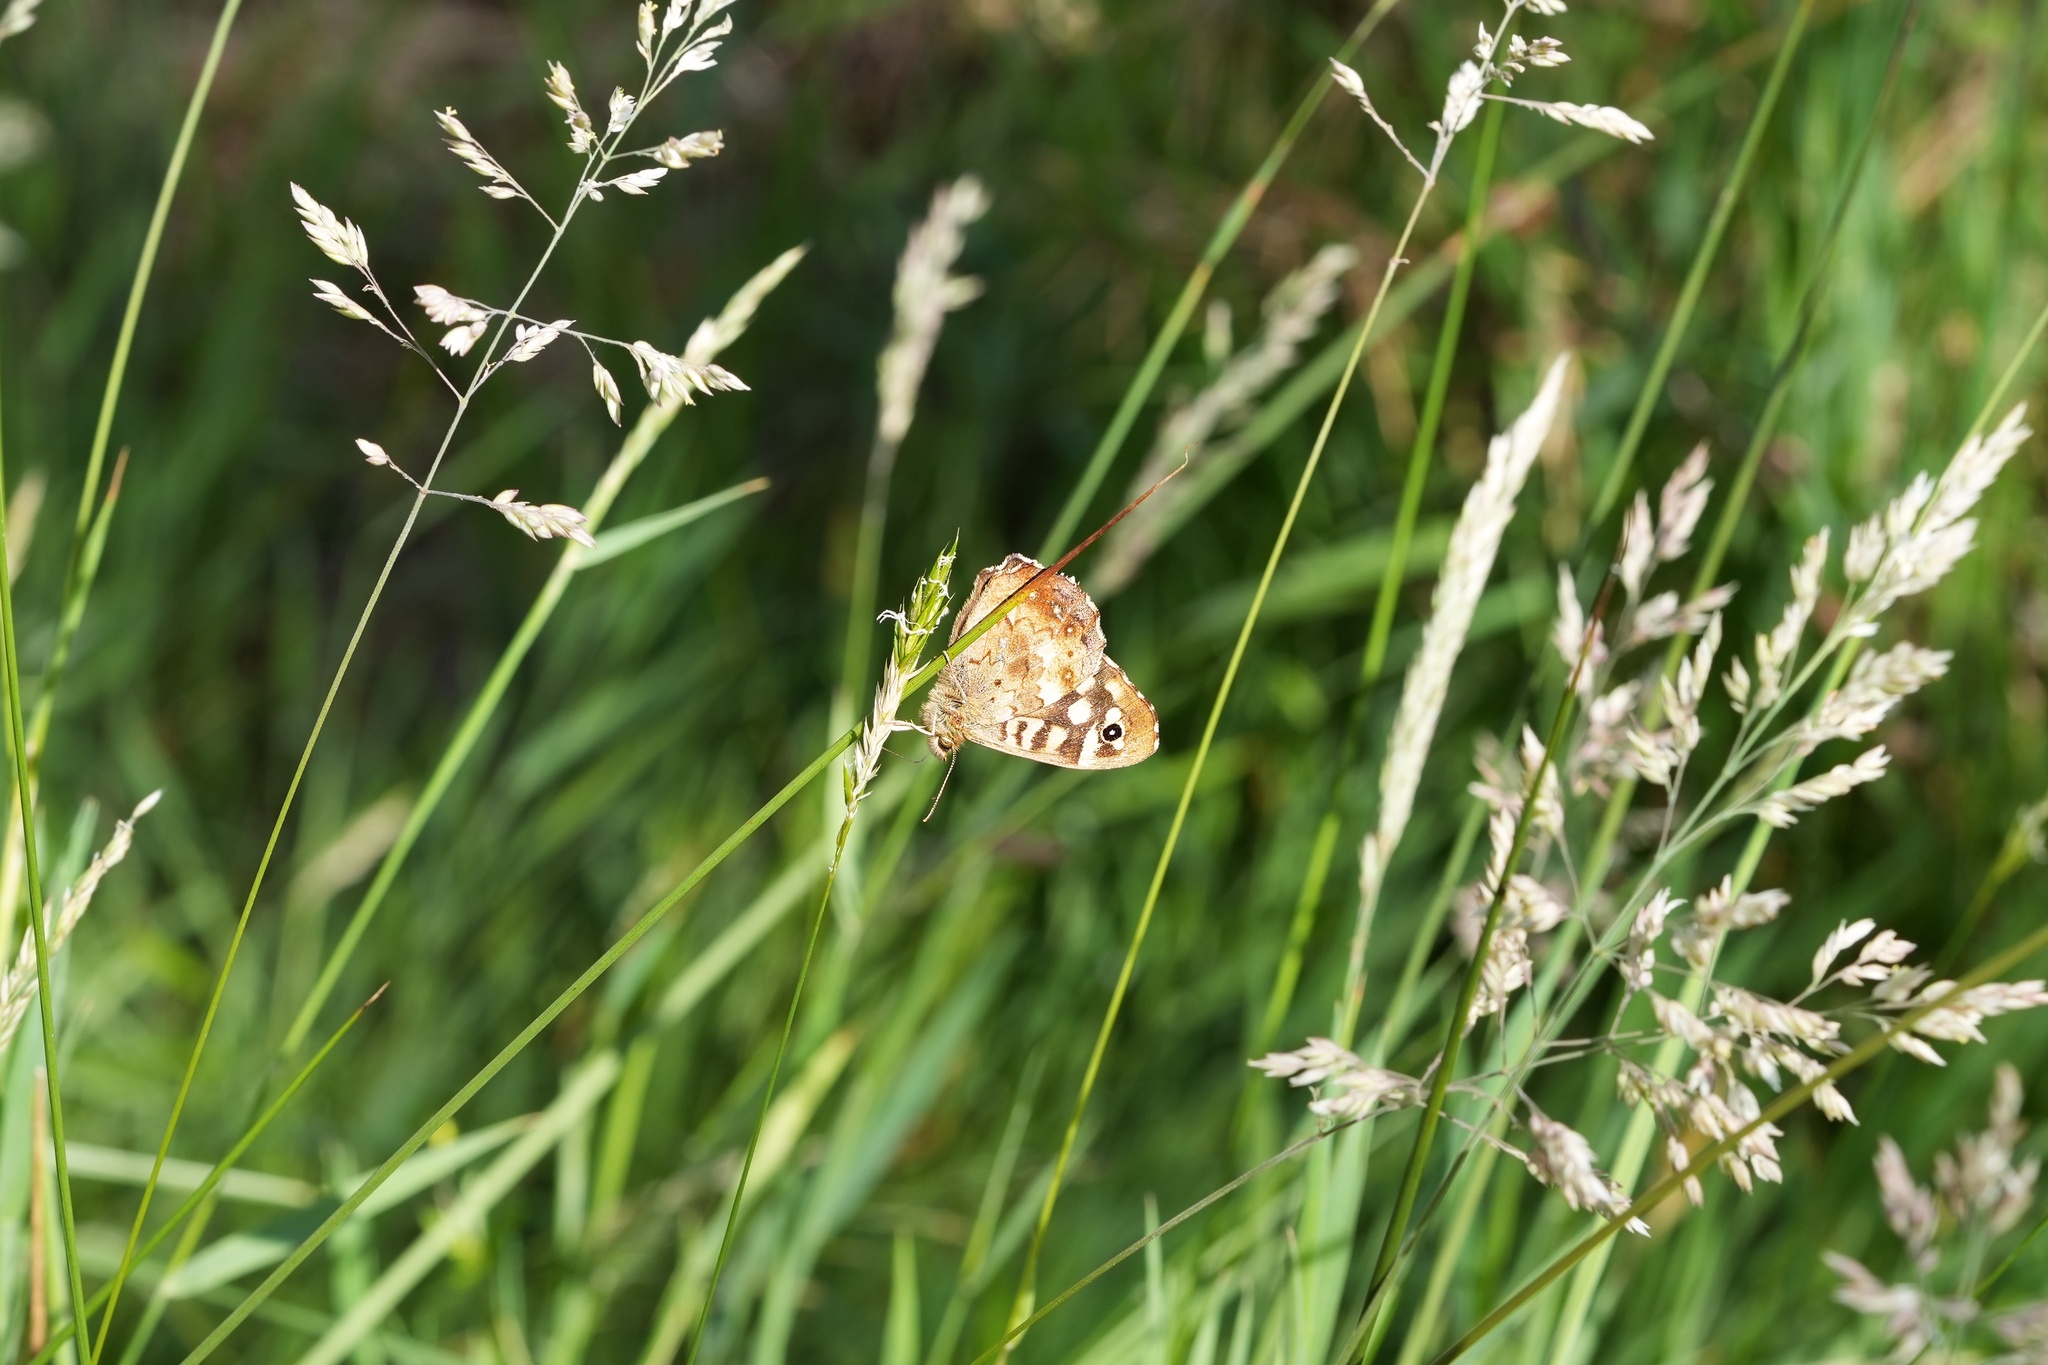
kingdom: Animalia
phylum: Arthropoda
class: Insecta
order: Lepidoptera
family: Nymphalidae
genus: Pararge
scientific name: Pararge aegeria
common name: Speckled wood
